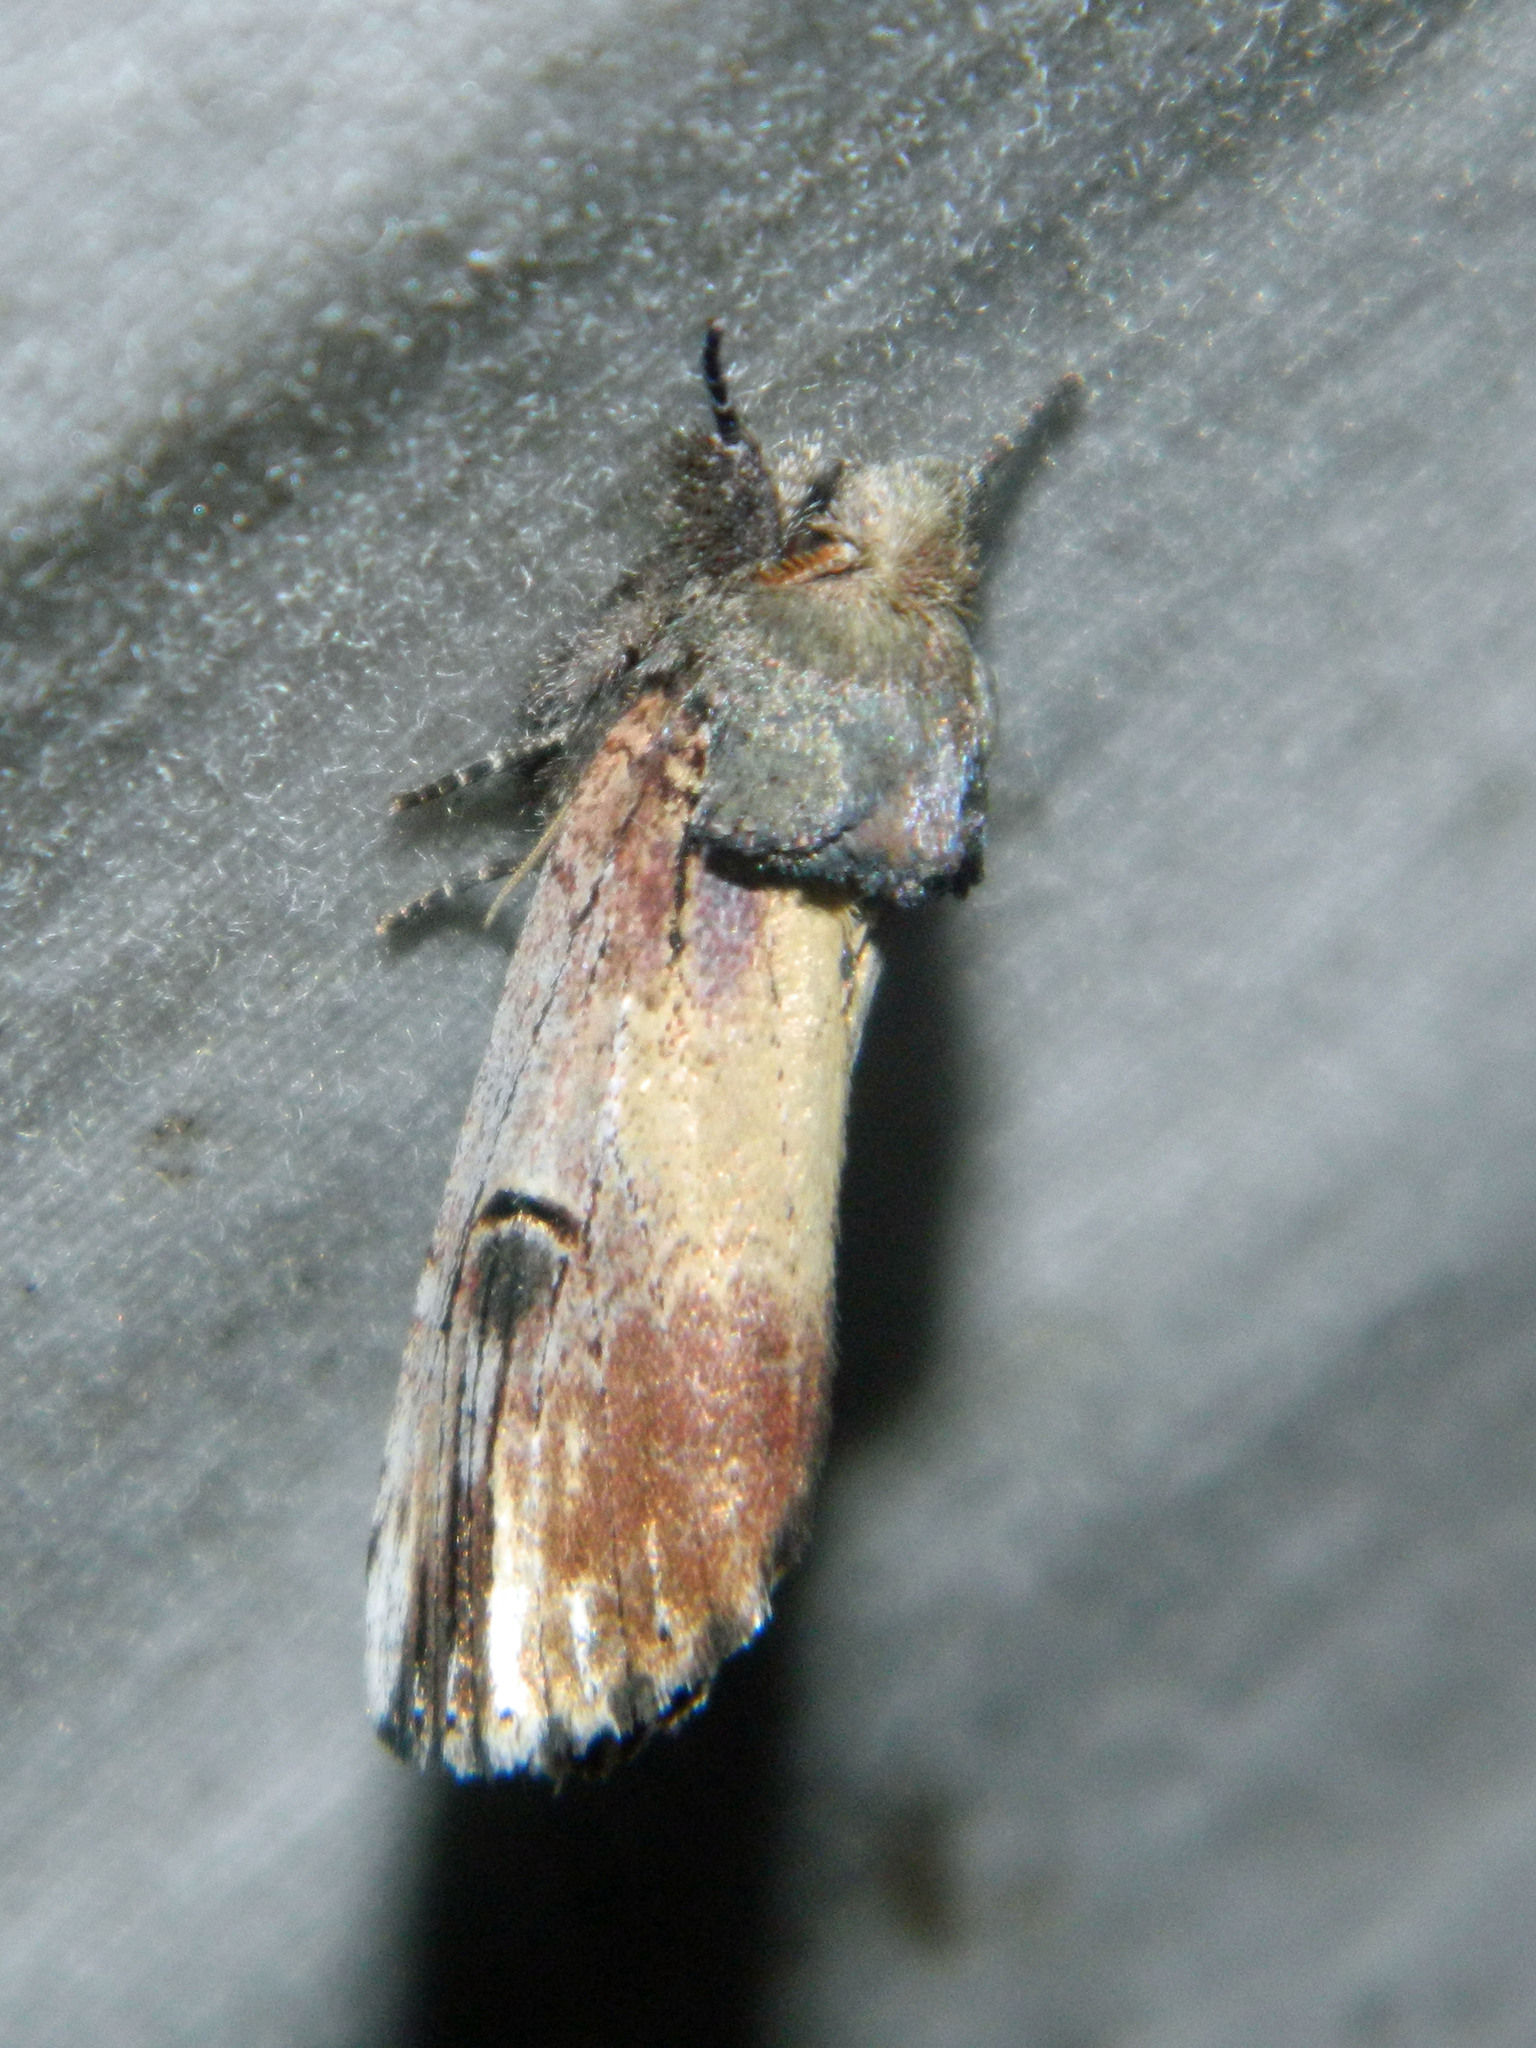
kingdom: Animalia
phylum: Arthropoda
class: Insecta
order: Lepidoptera
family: Notodontidae
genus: Schizura
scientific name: Schizura badia
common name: Chestnut schizura
